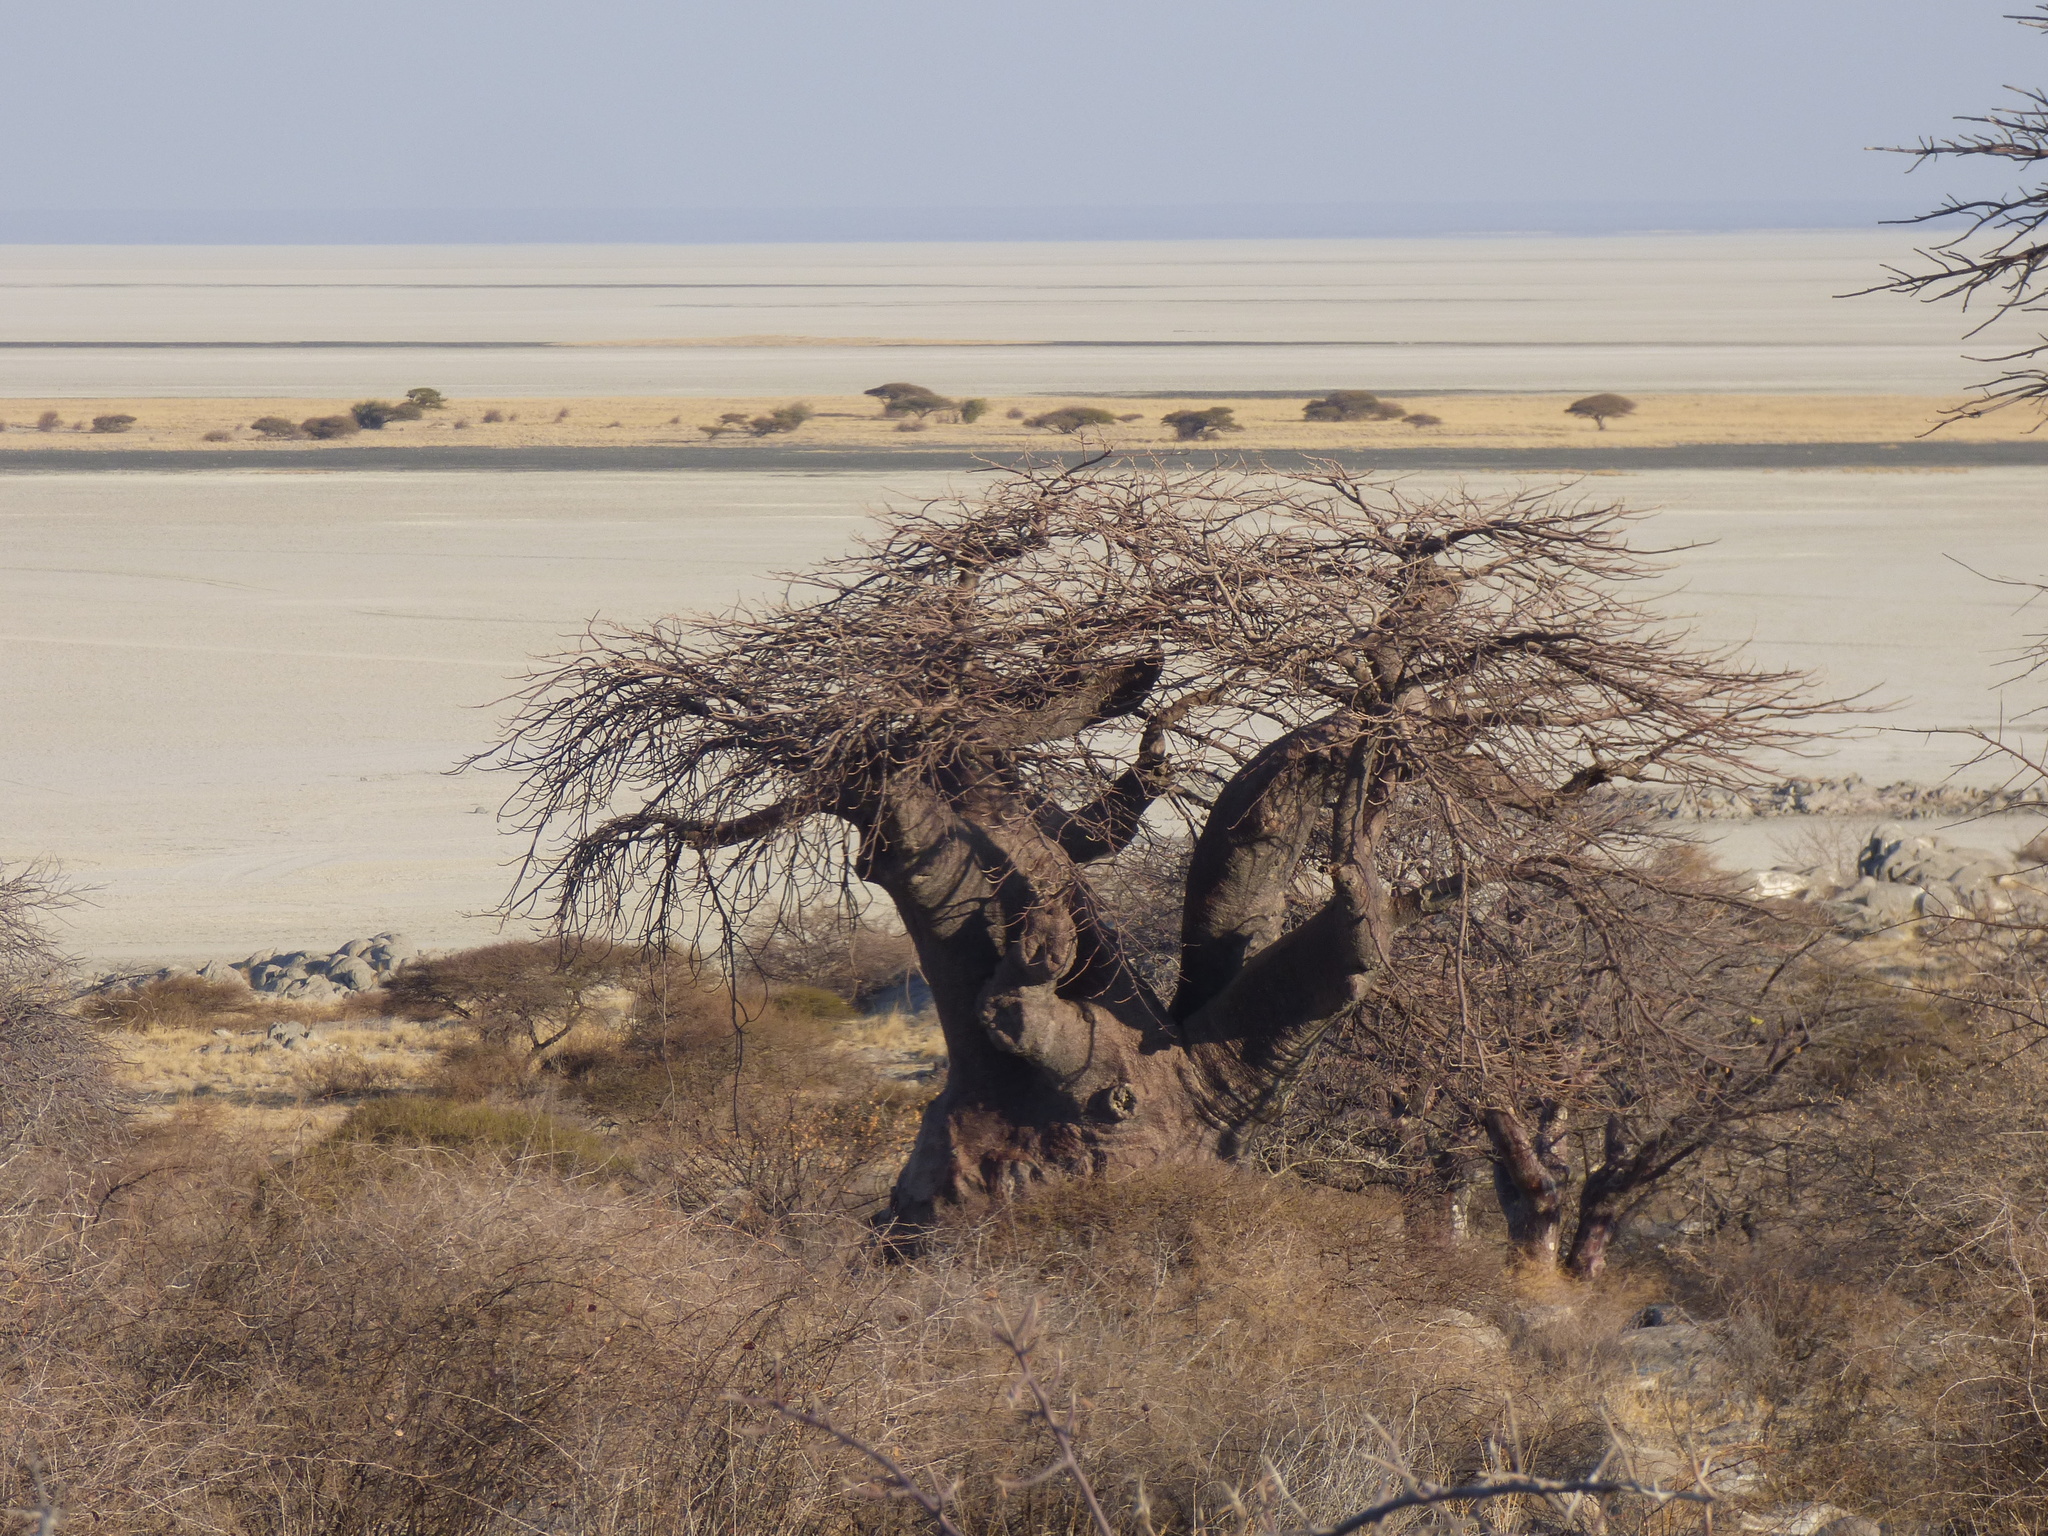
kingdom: Plantae
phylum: Tracheophyta
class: Magnoliopsida
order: Malvales
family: Malvaceae
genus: Adansonia
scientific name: Adansonia digitata
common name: Dead-rat-tree
